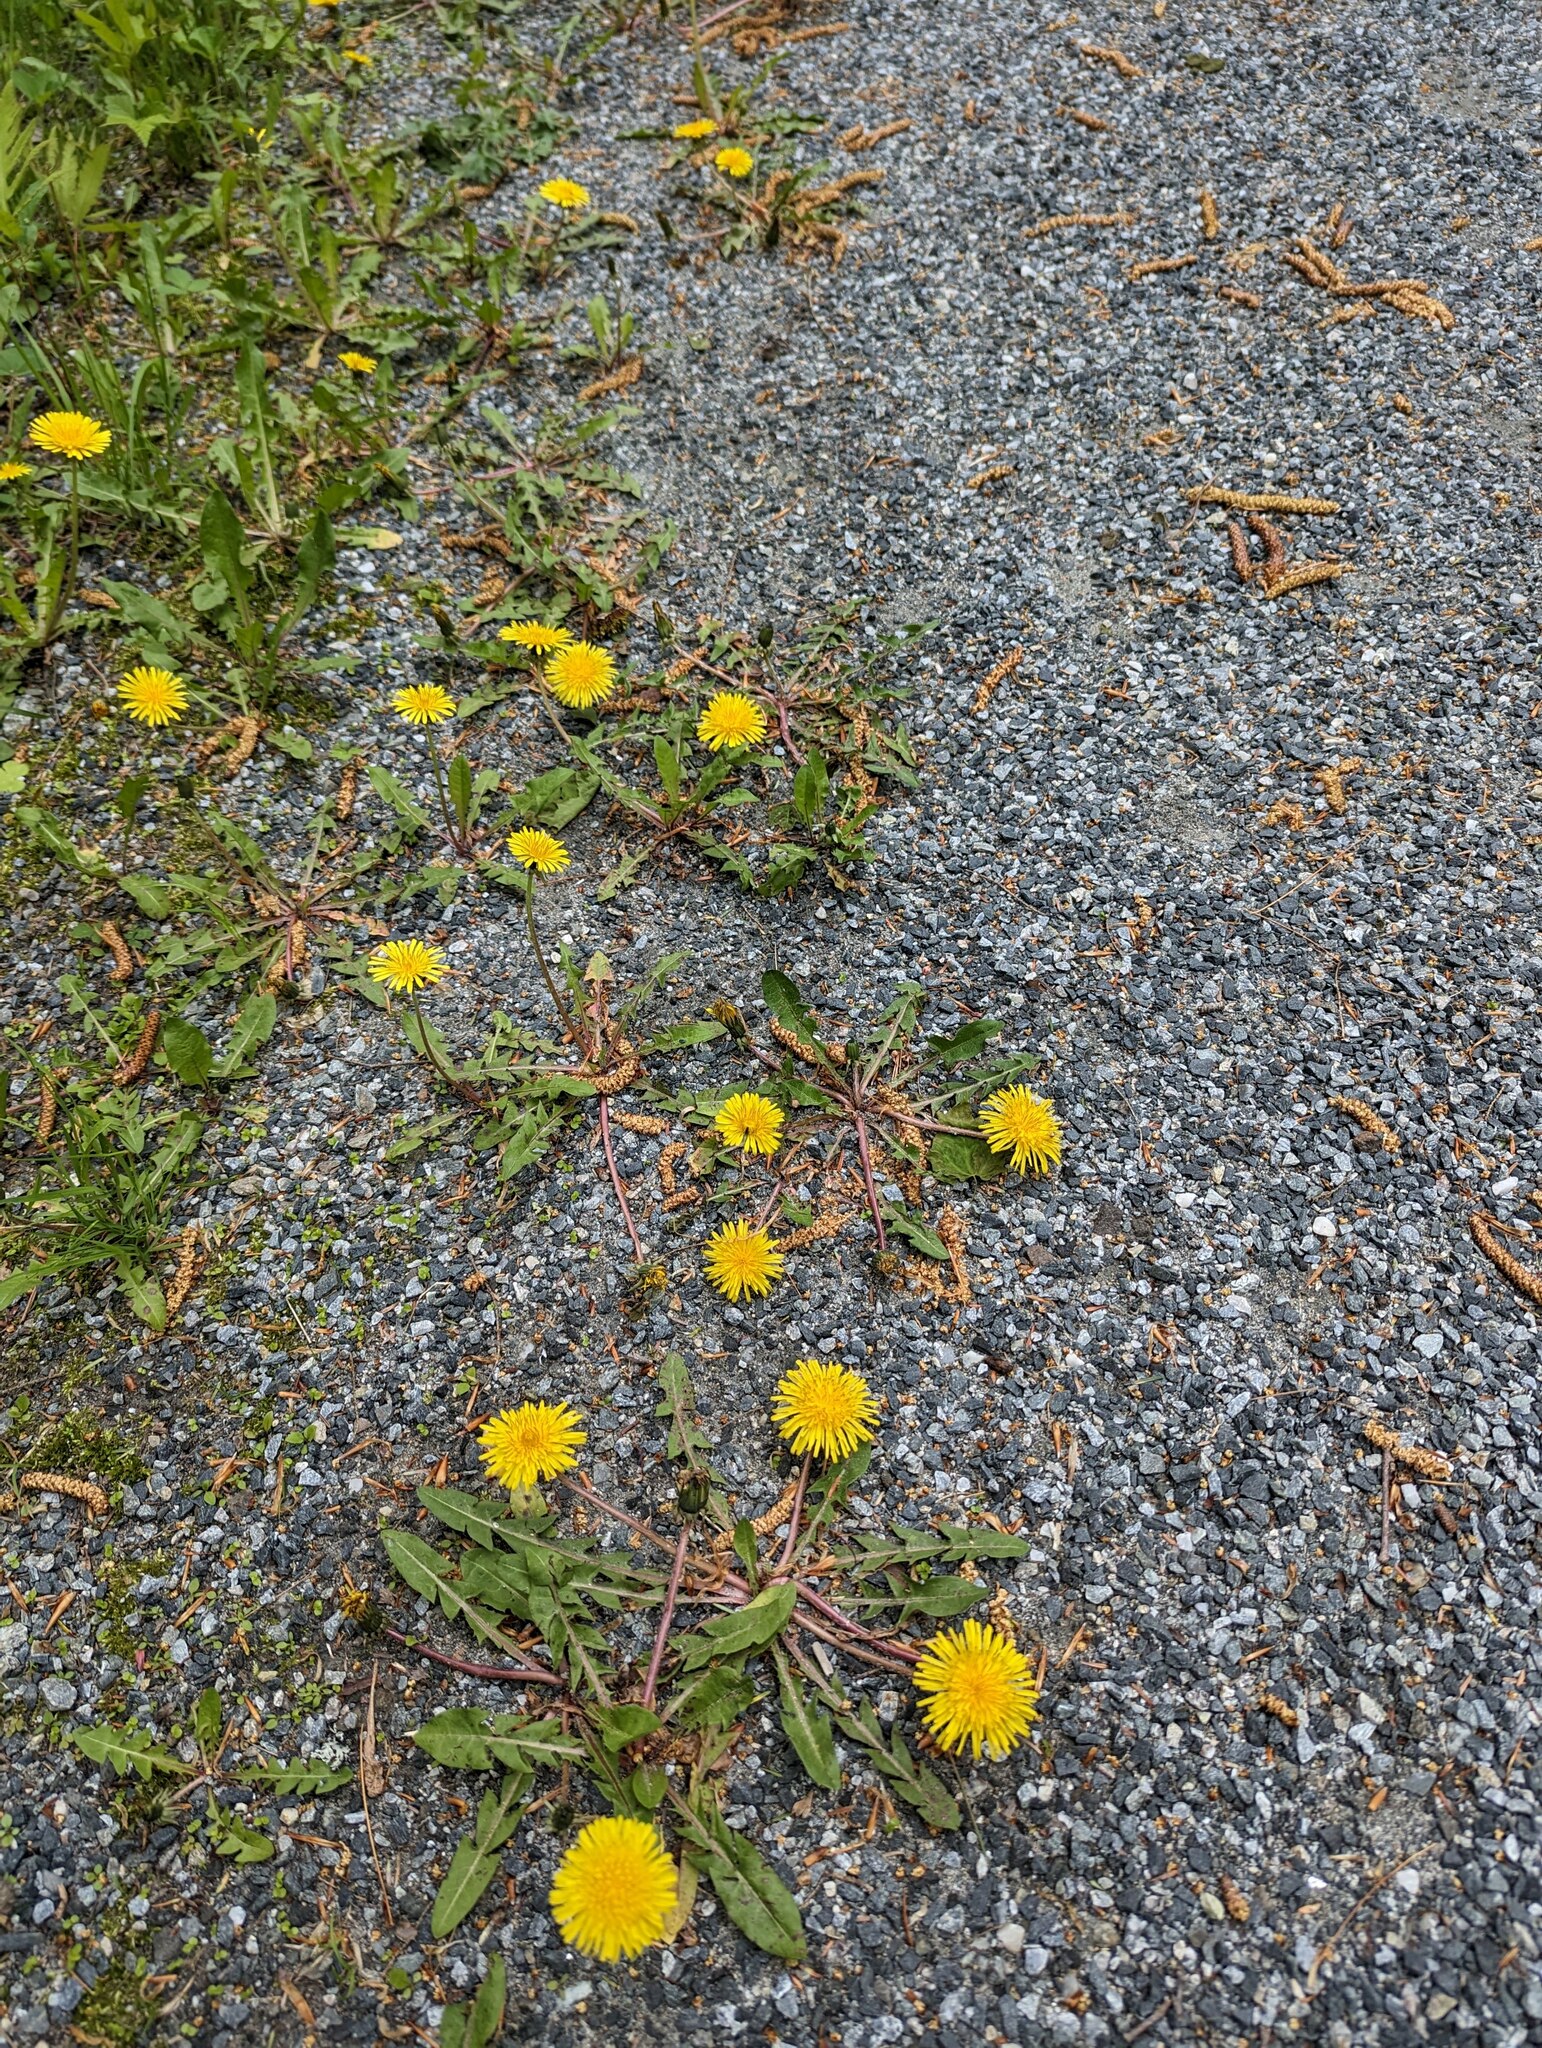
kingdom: Plantae
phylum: Tracheophyta
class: Magnoliopsida
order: Asterales
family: Asteraceae
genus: Taraxacum
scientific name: Taraxacum erythrospermum
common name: Rock dandelion
